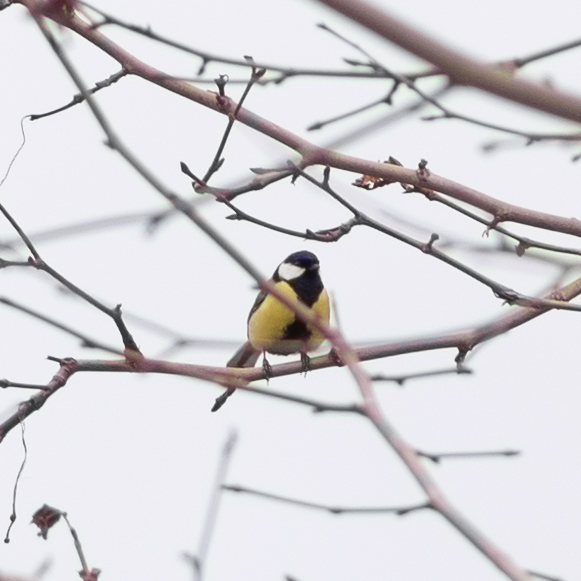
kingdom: Animalia
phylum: Chordata
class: Aves
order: Passeriformes
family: Paridae
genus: Parus
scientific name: Parus major
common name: Great tit
